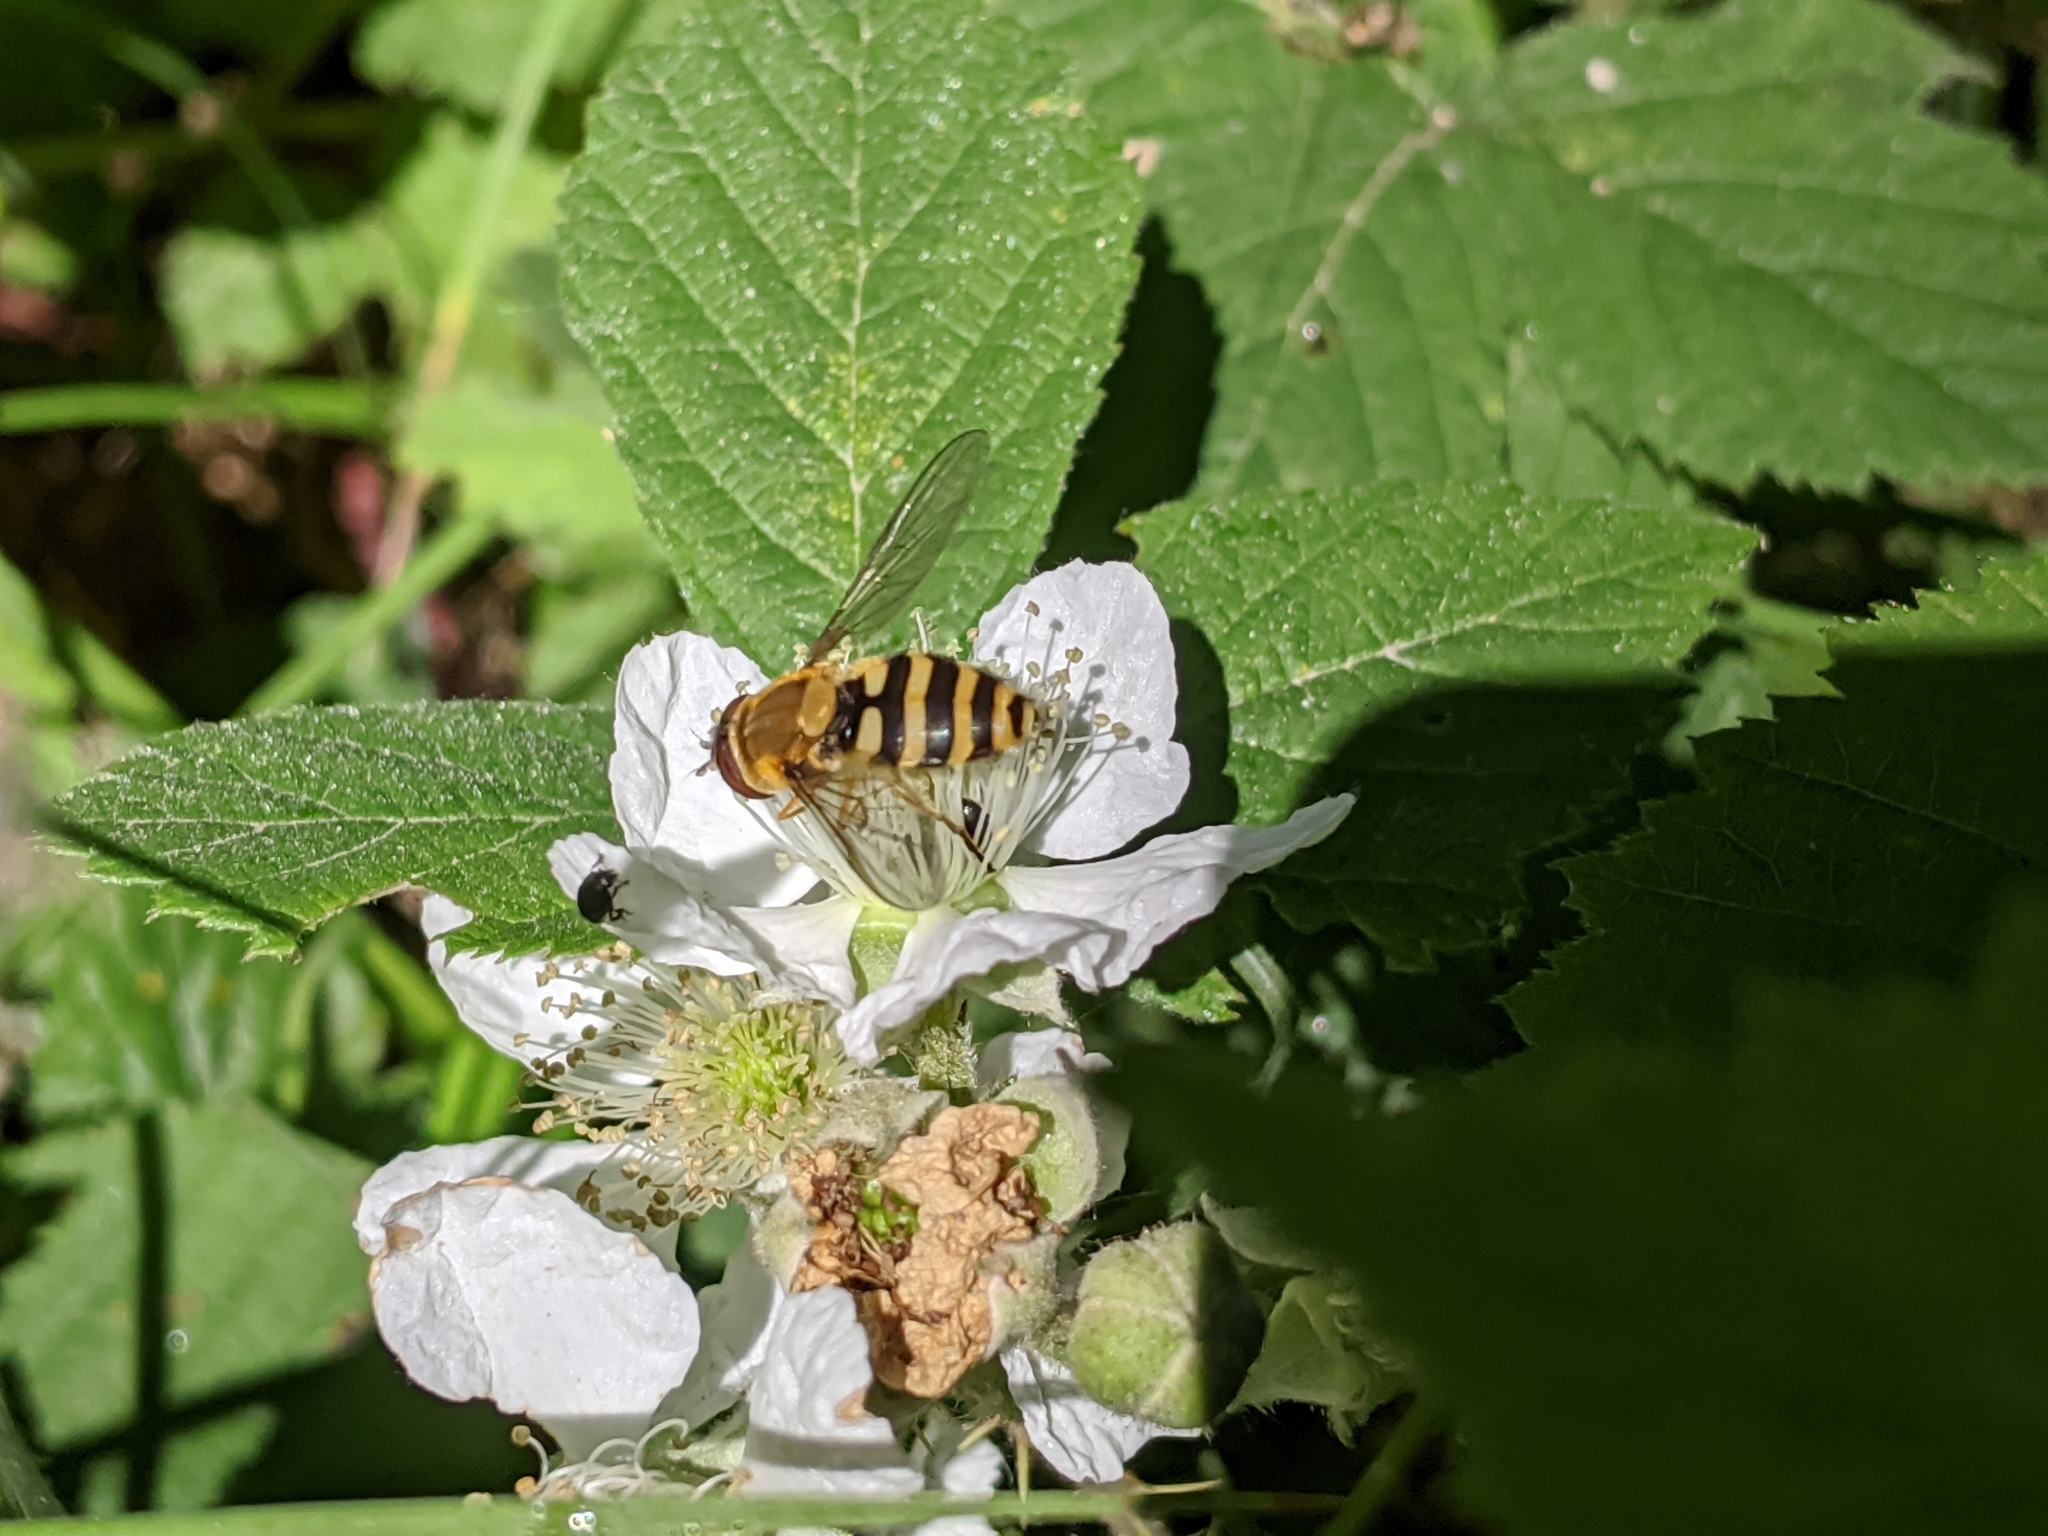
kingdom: Animalia
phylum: Arthropoda
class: Insecta
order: Diptera
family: Syrphidae
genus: Syrphus
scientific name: Syrphus ribesii
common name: Common flower fly
